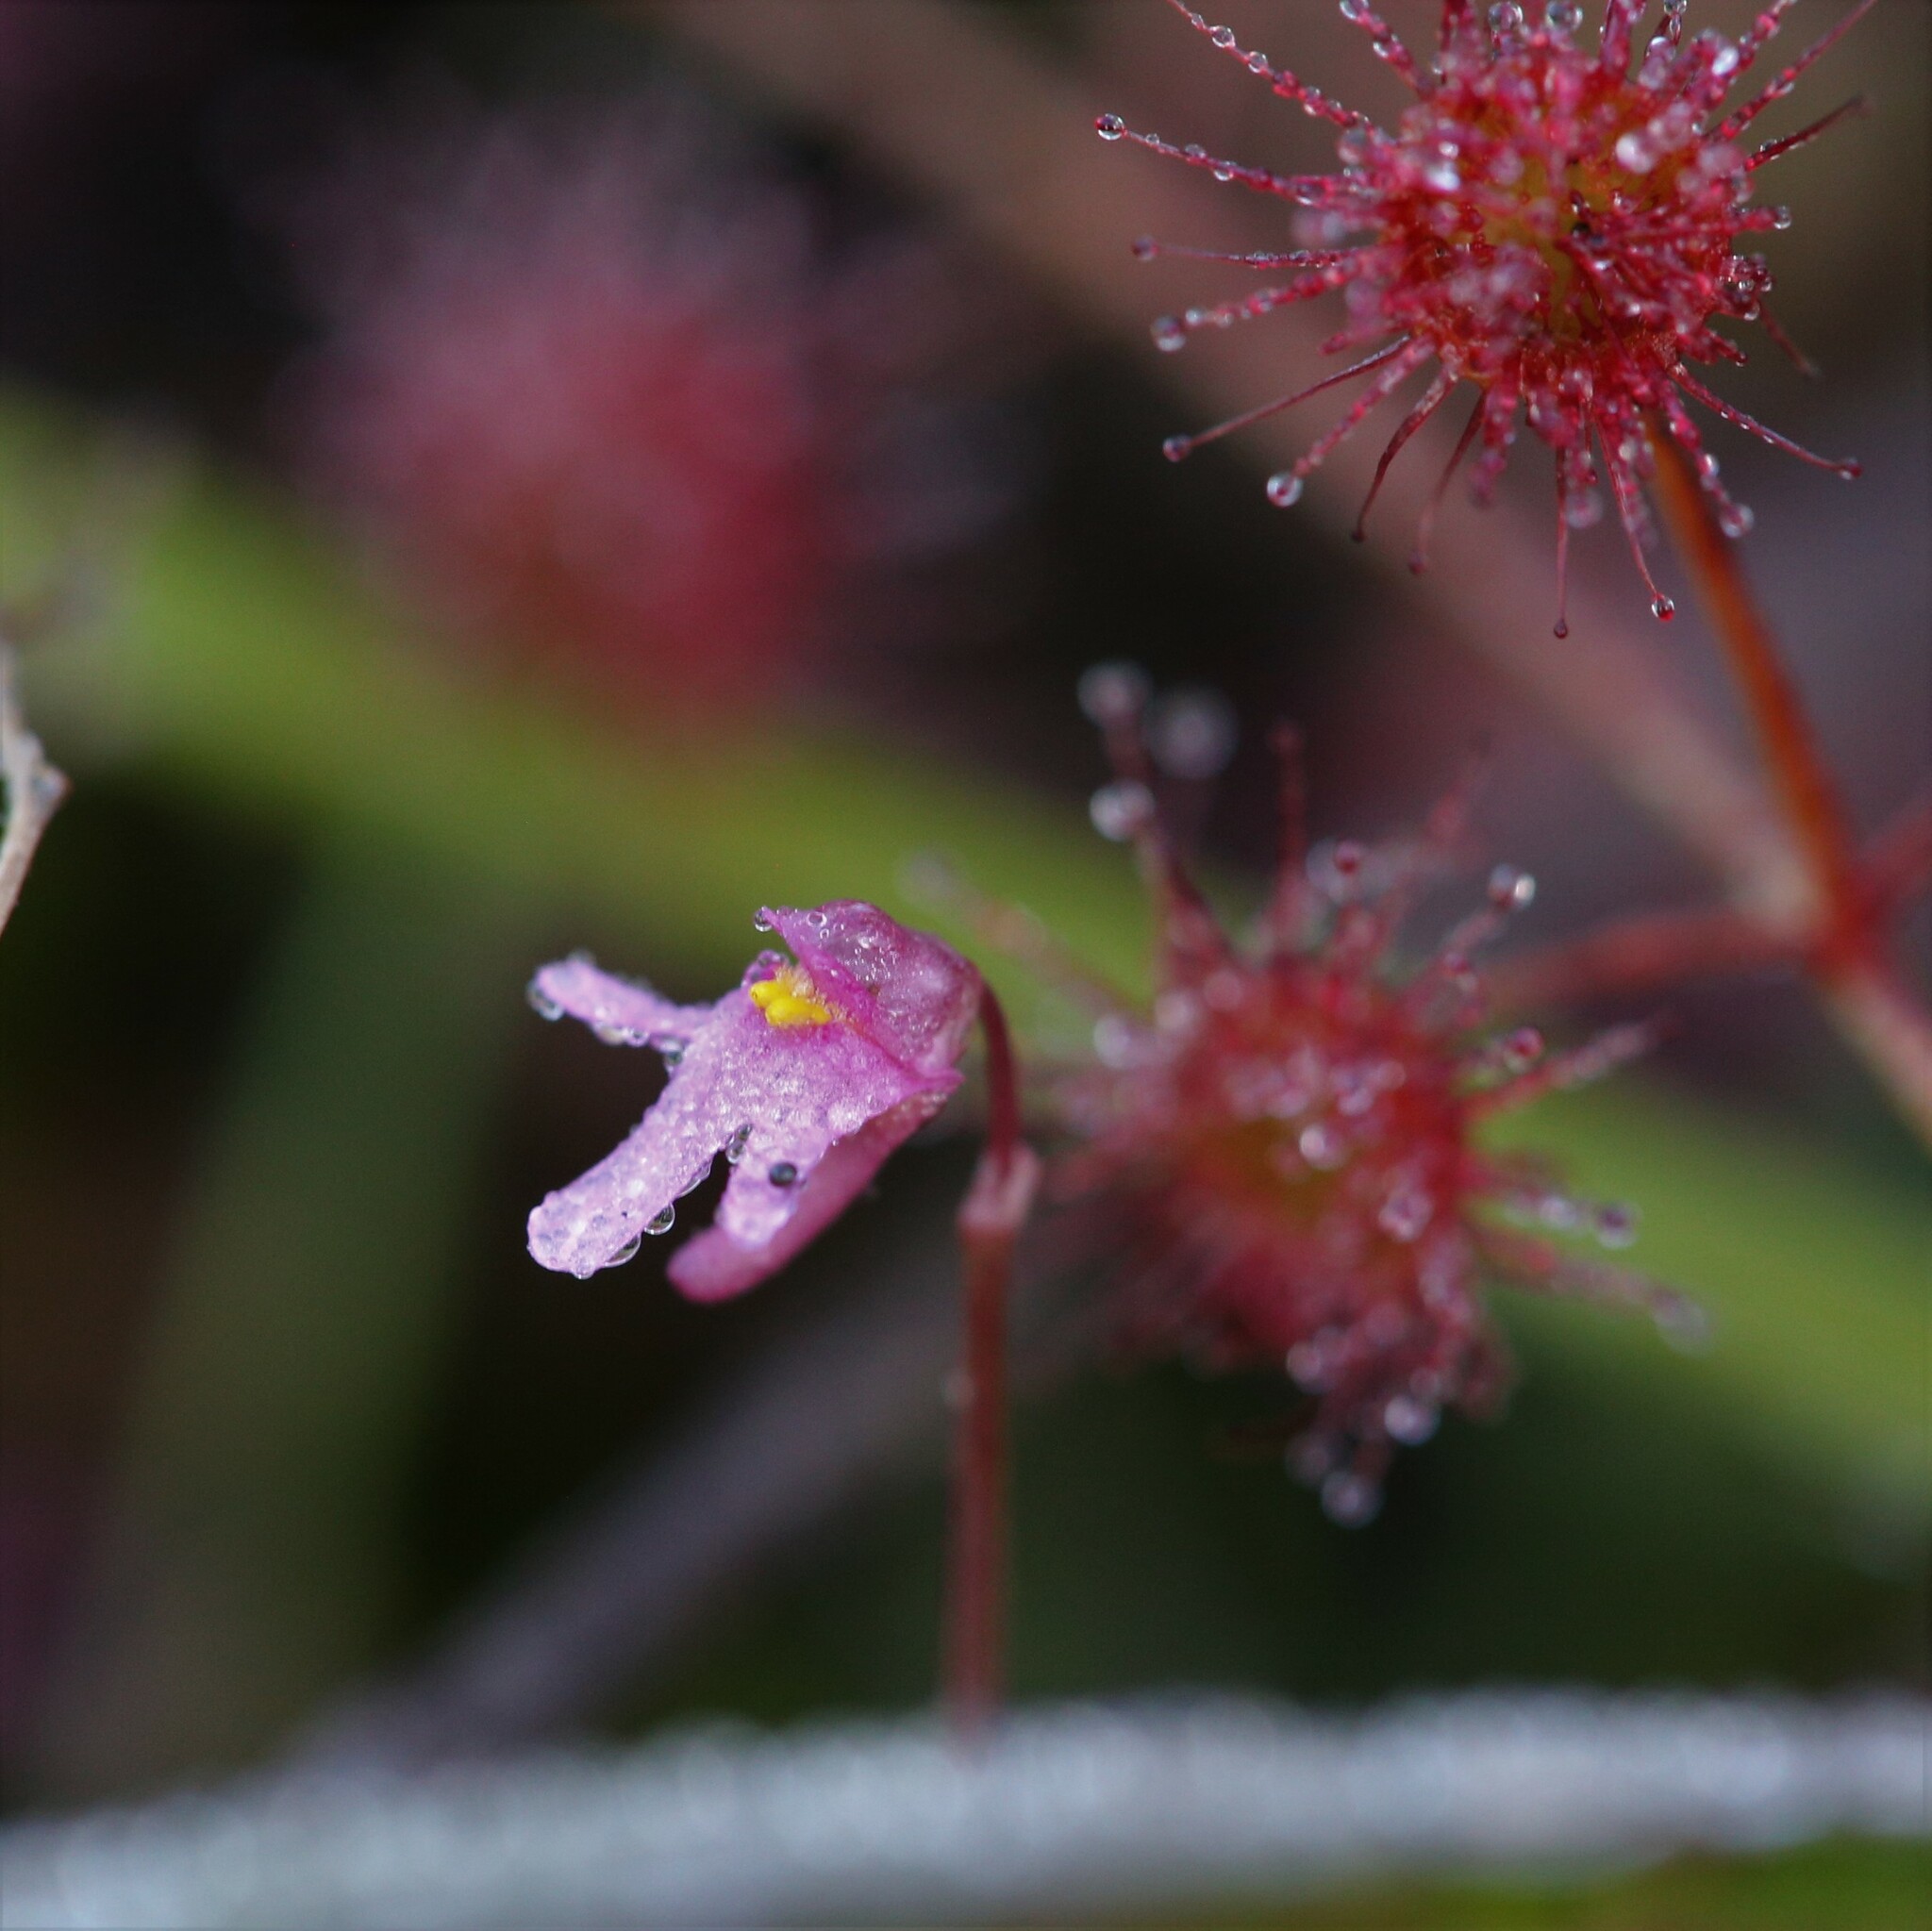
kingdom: Plantae
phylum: Tracheophyta
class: Magnoliopsida
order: Lamiales
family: Lentibulariaceae
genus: Utricularia
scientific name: Utricularia tenella
